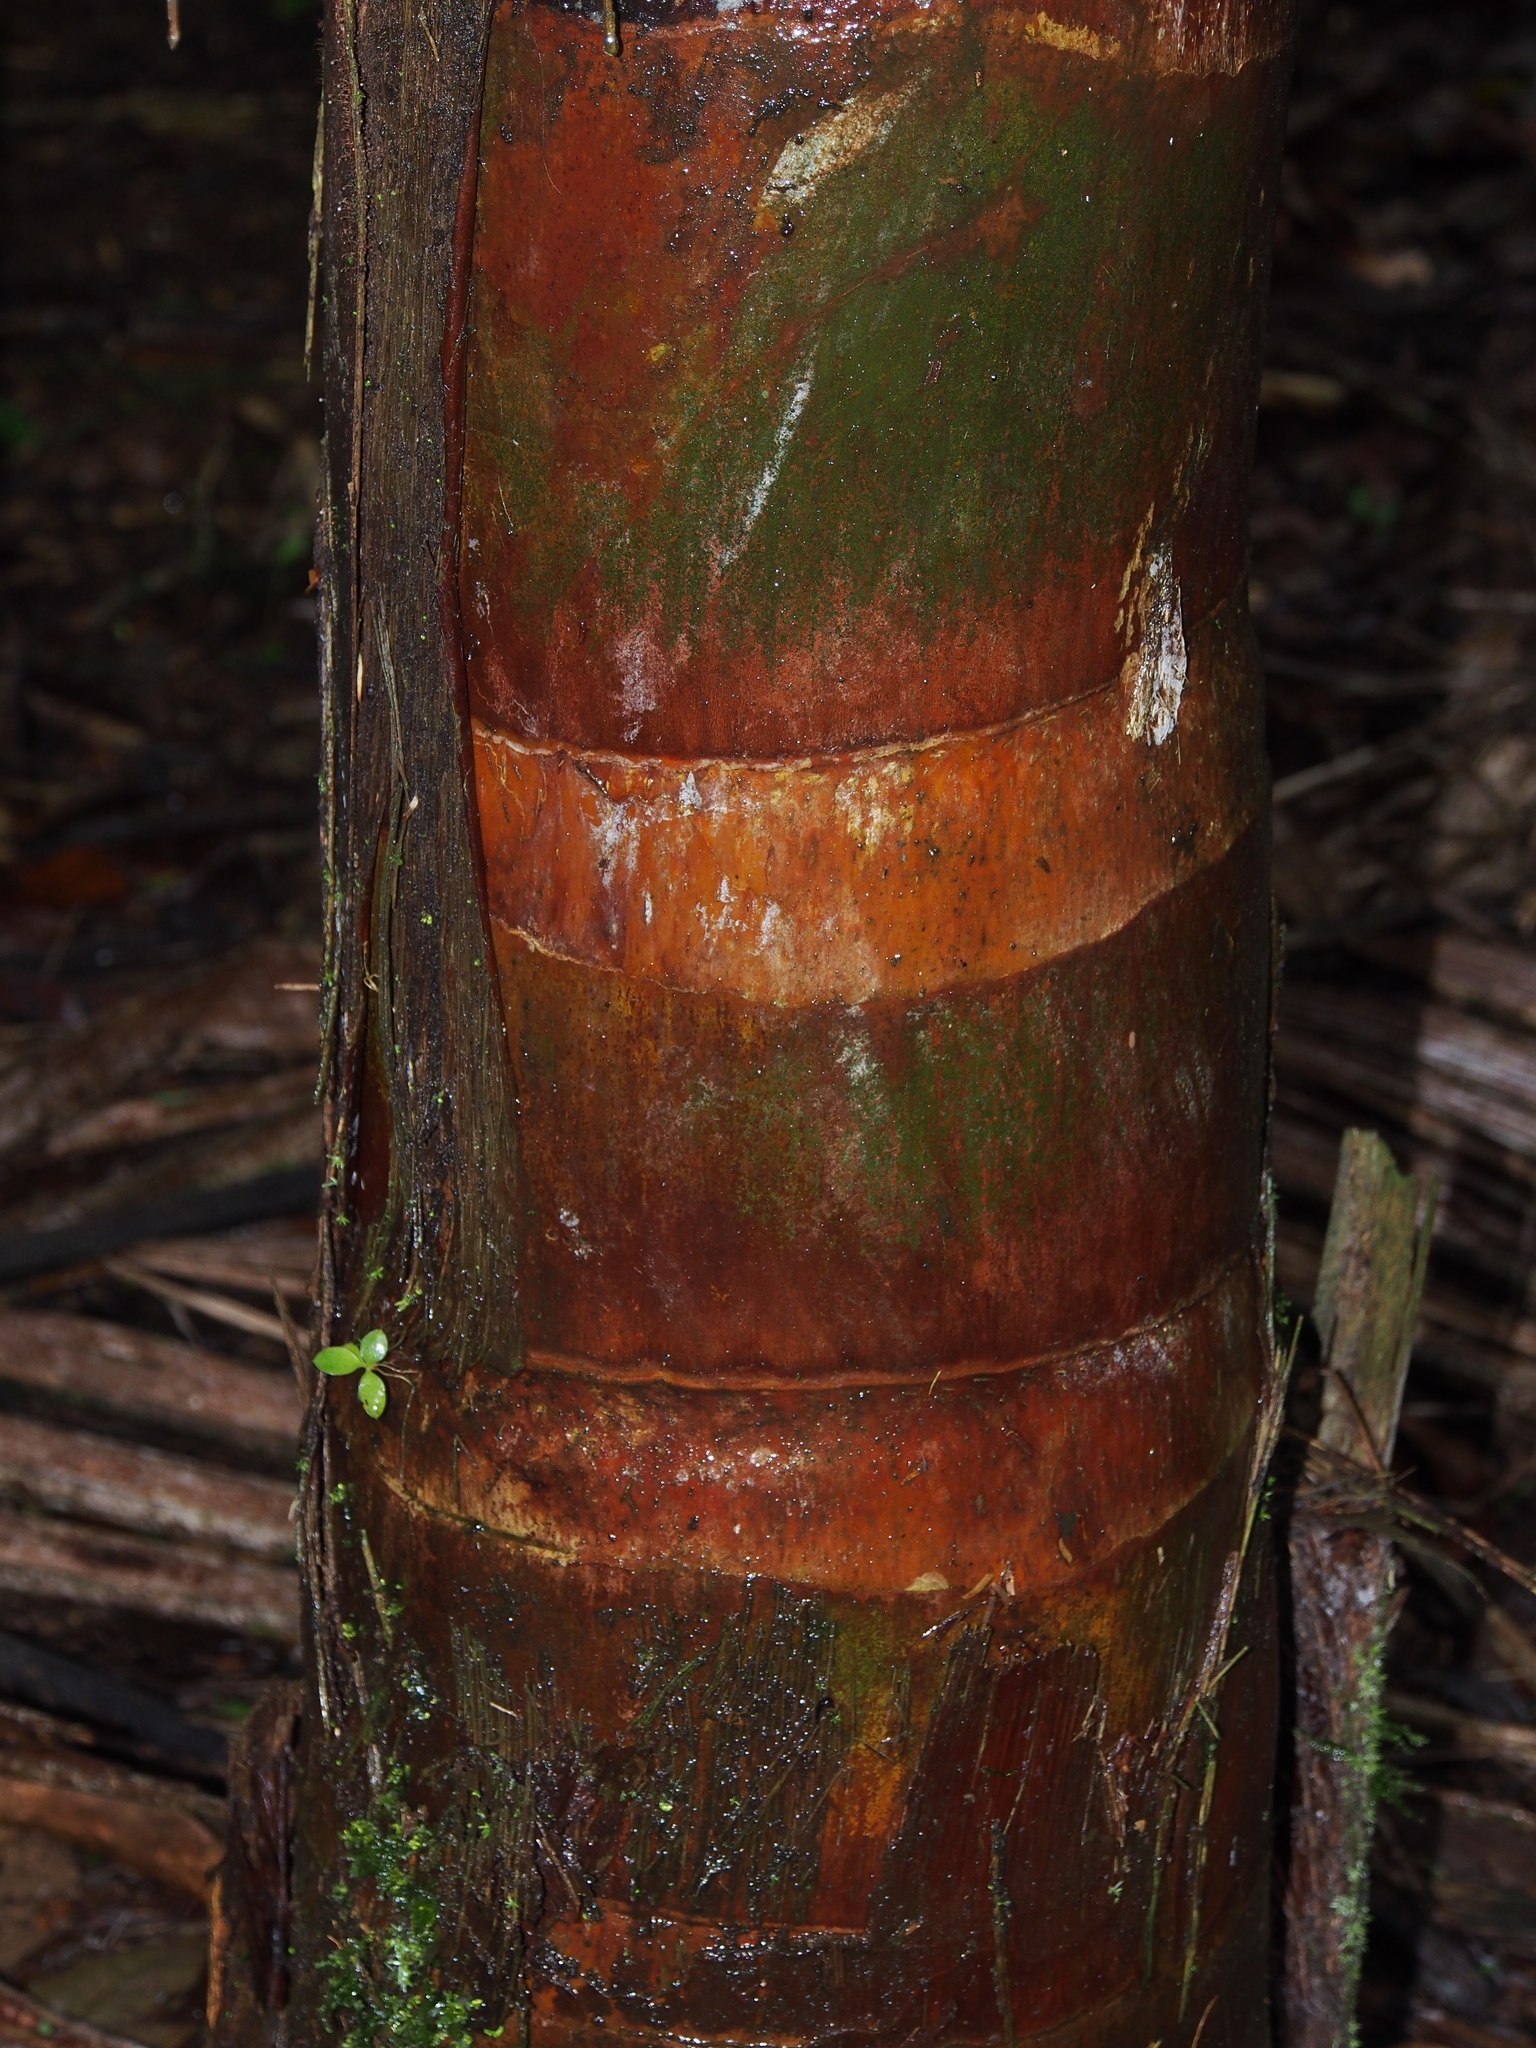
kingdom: Plantae
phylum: Tracheophyta
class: Liliopsida
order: Arecales
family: Arecaceae
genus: Welfia
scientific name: Welfia regia
